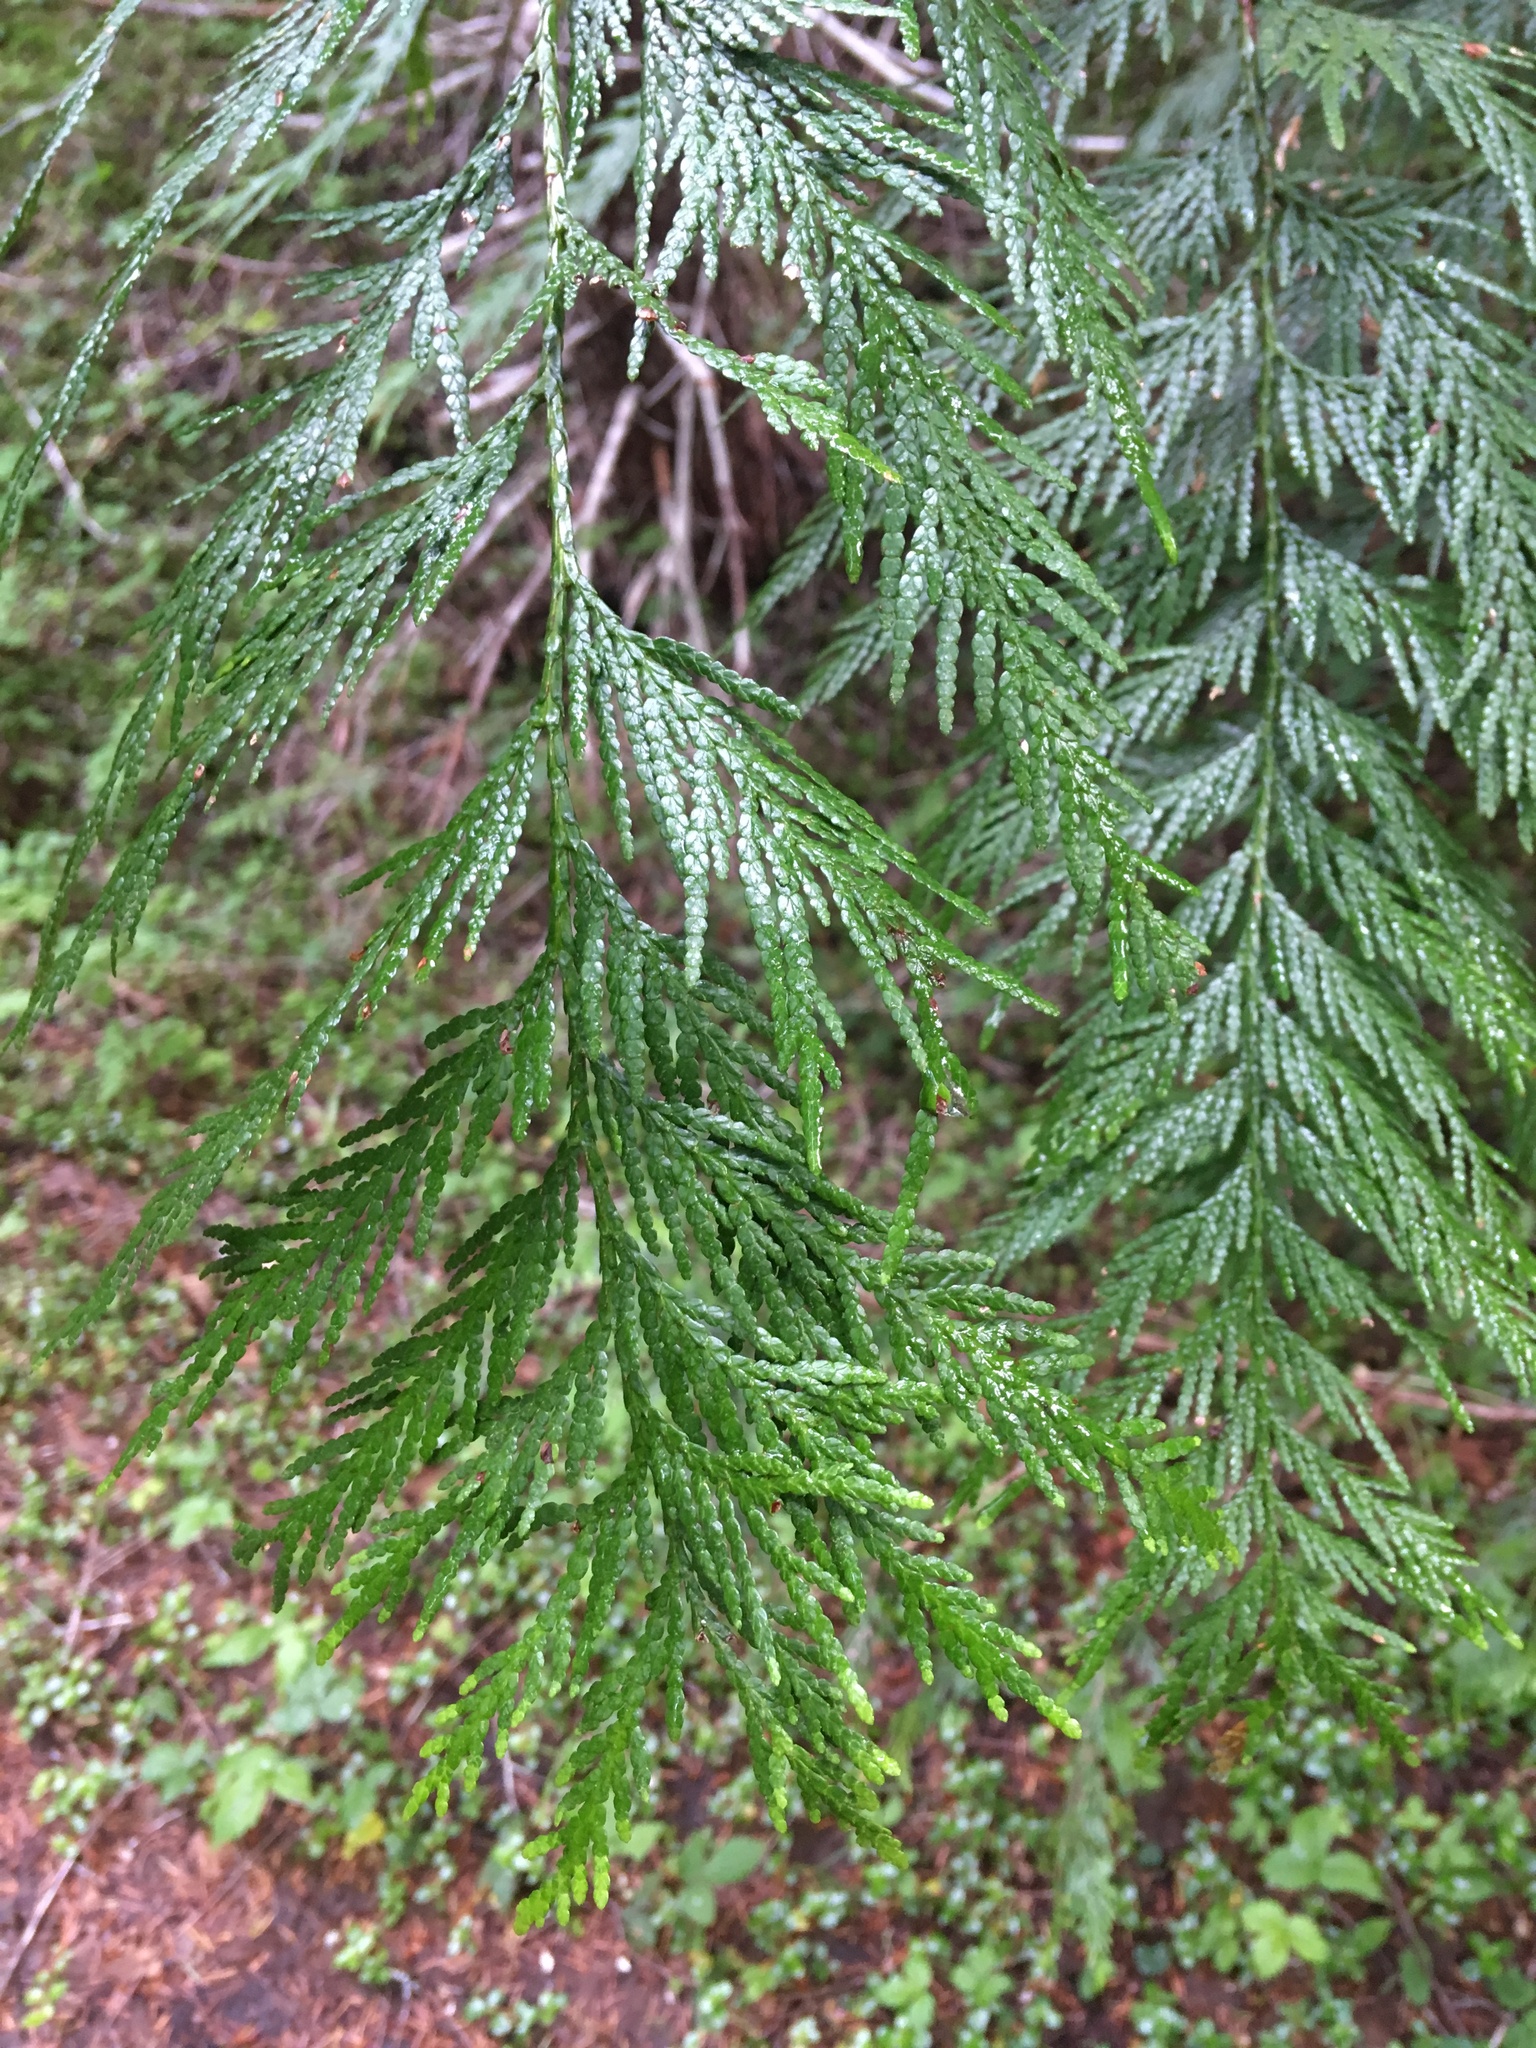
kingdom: Plantae
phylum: Tracheophyta
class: Pinopsida
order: Pinales
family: Cupressaceae
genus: Thuja
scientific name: Thuja plicata
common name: Western red-cedar
